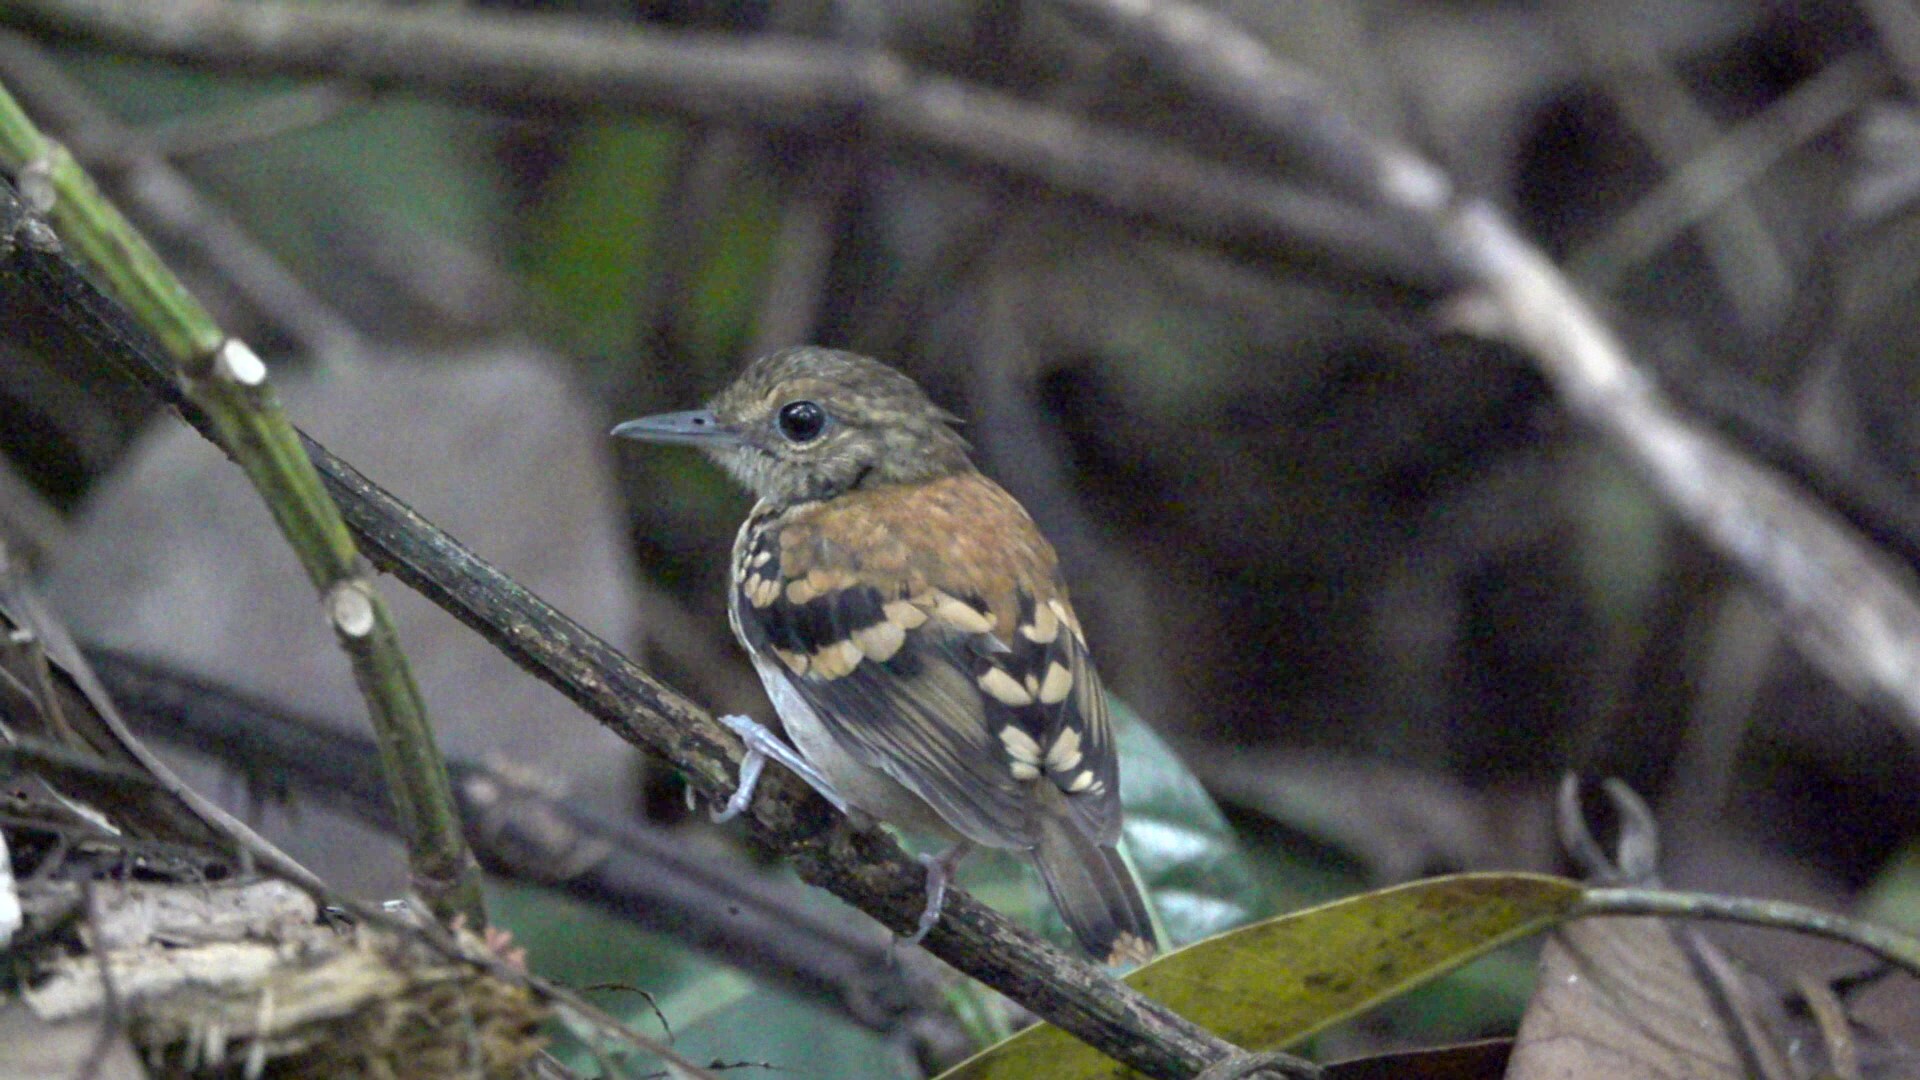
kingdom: Animalia
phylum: Chordata
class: Aves
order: Passeriformes
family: Thamnophilidae
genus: Hylophylax
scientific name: Hylophylax naevioides
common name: Spotted antbird
